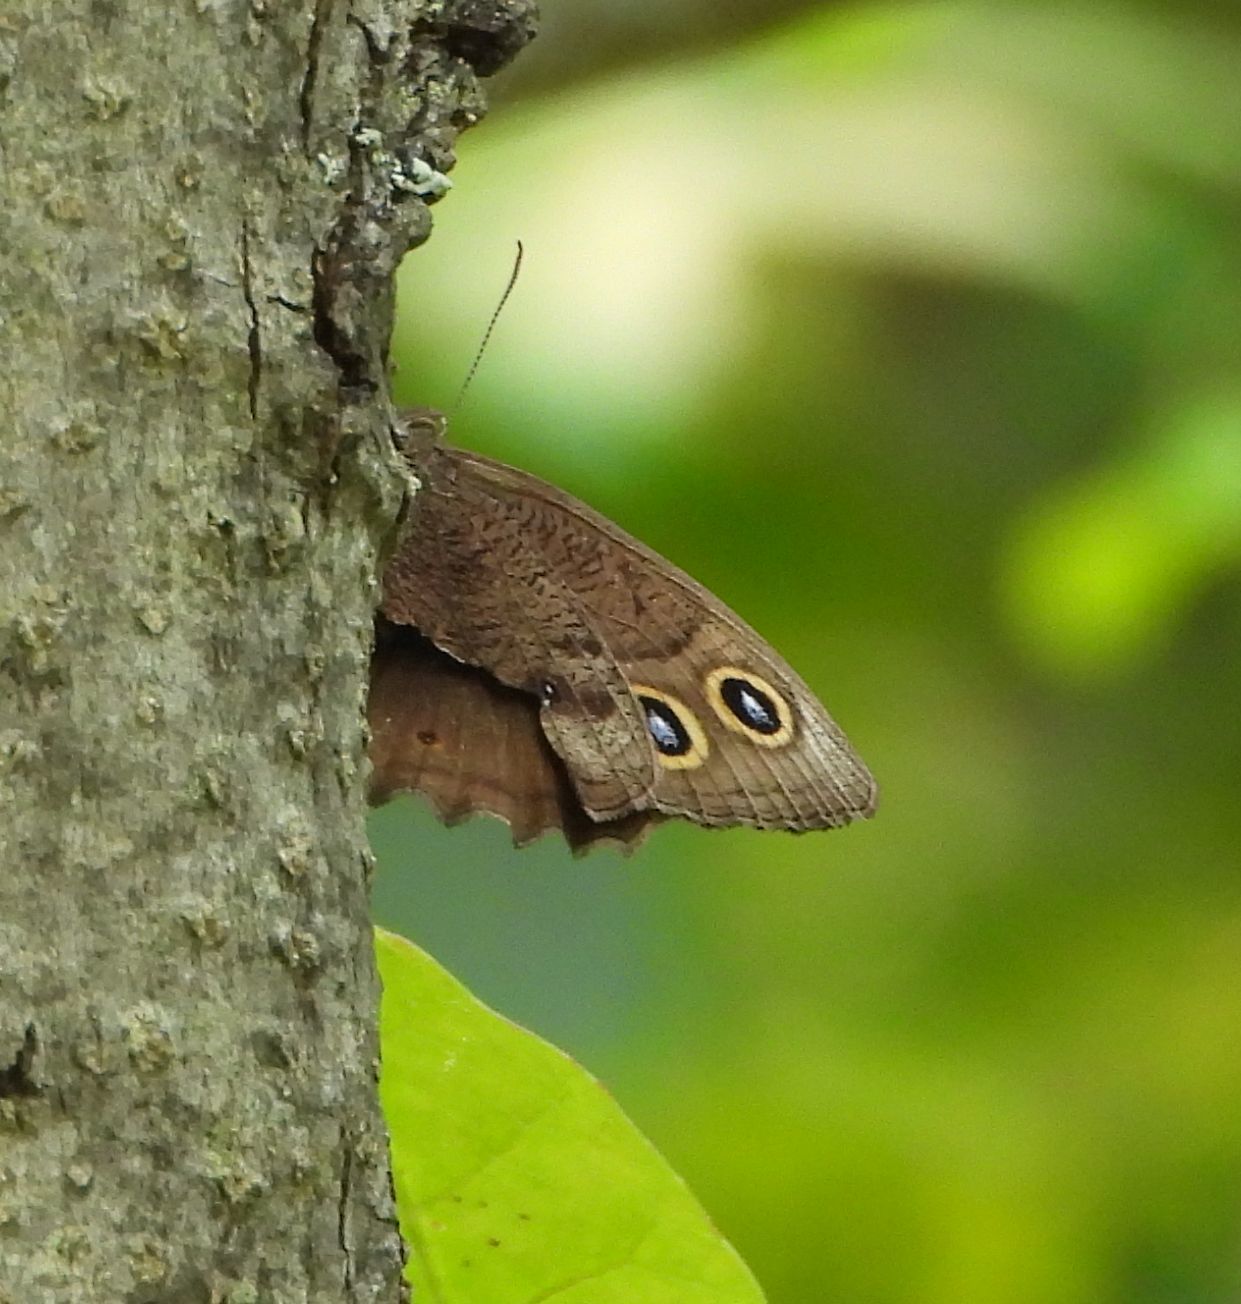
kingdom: Animalia
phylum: Arthropoda
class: Insecta
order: Lepidoptera
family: Nymphalidae
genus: Cercyonis
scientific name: Cercyonis pegala
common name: Common wood-nymph
